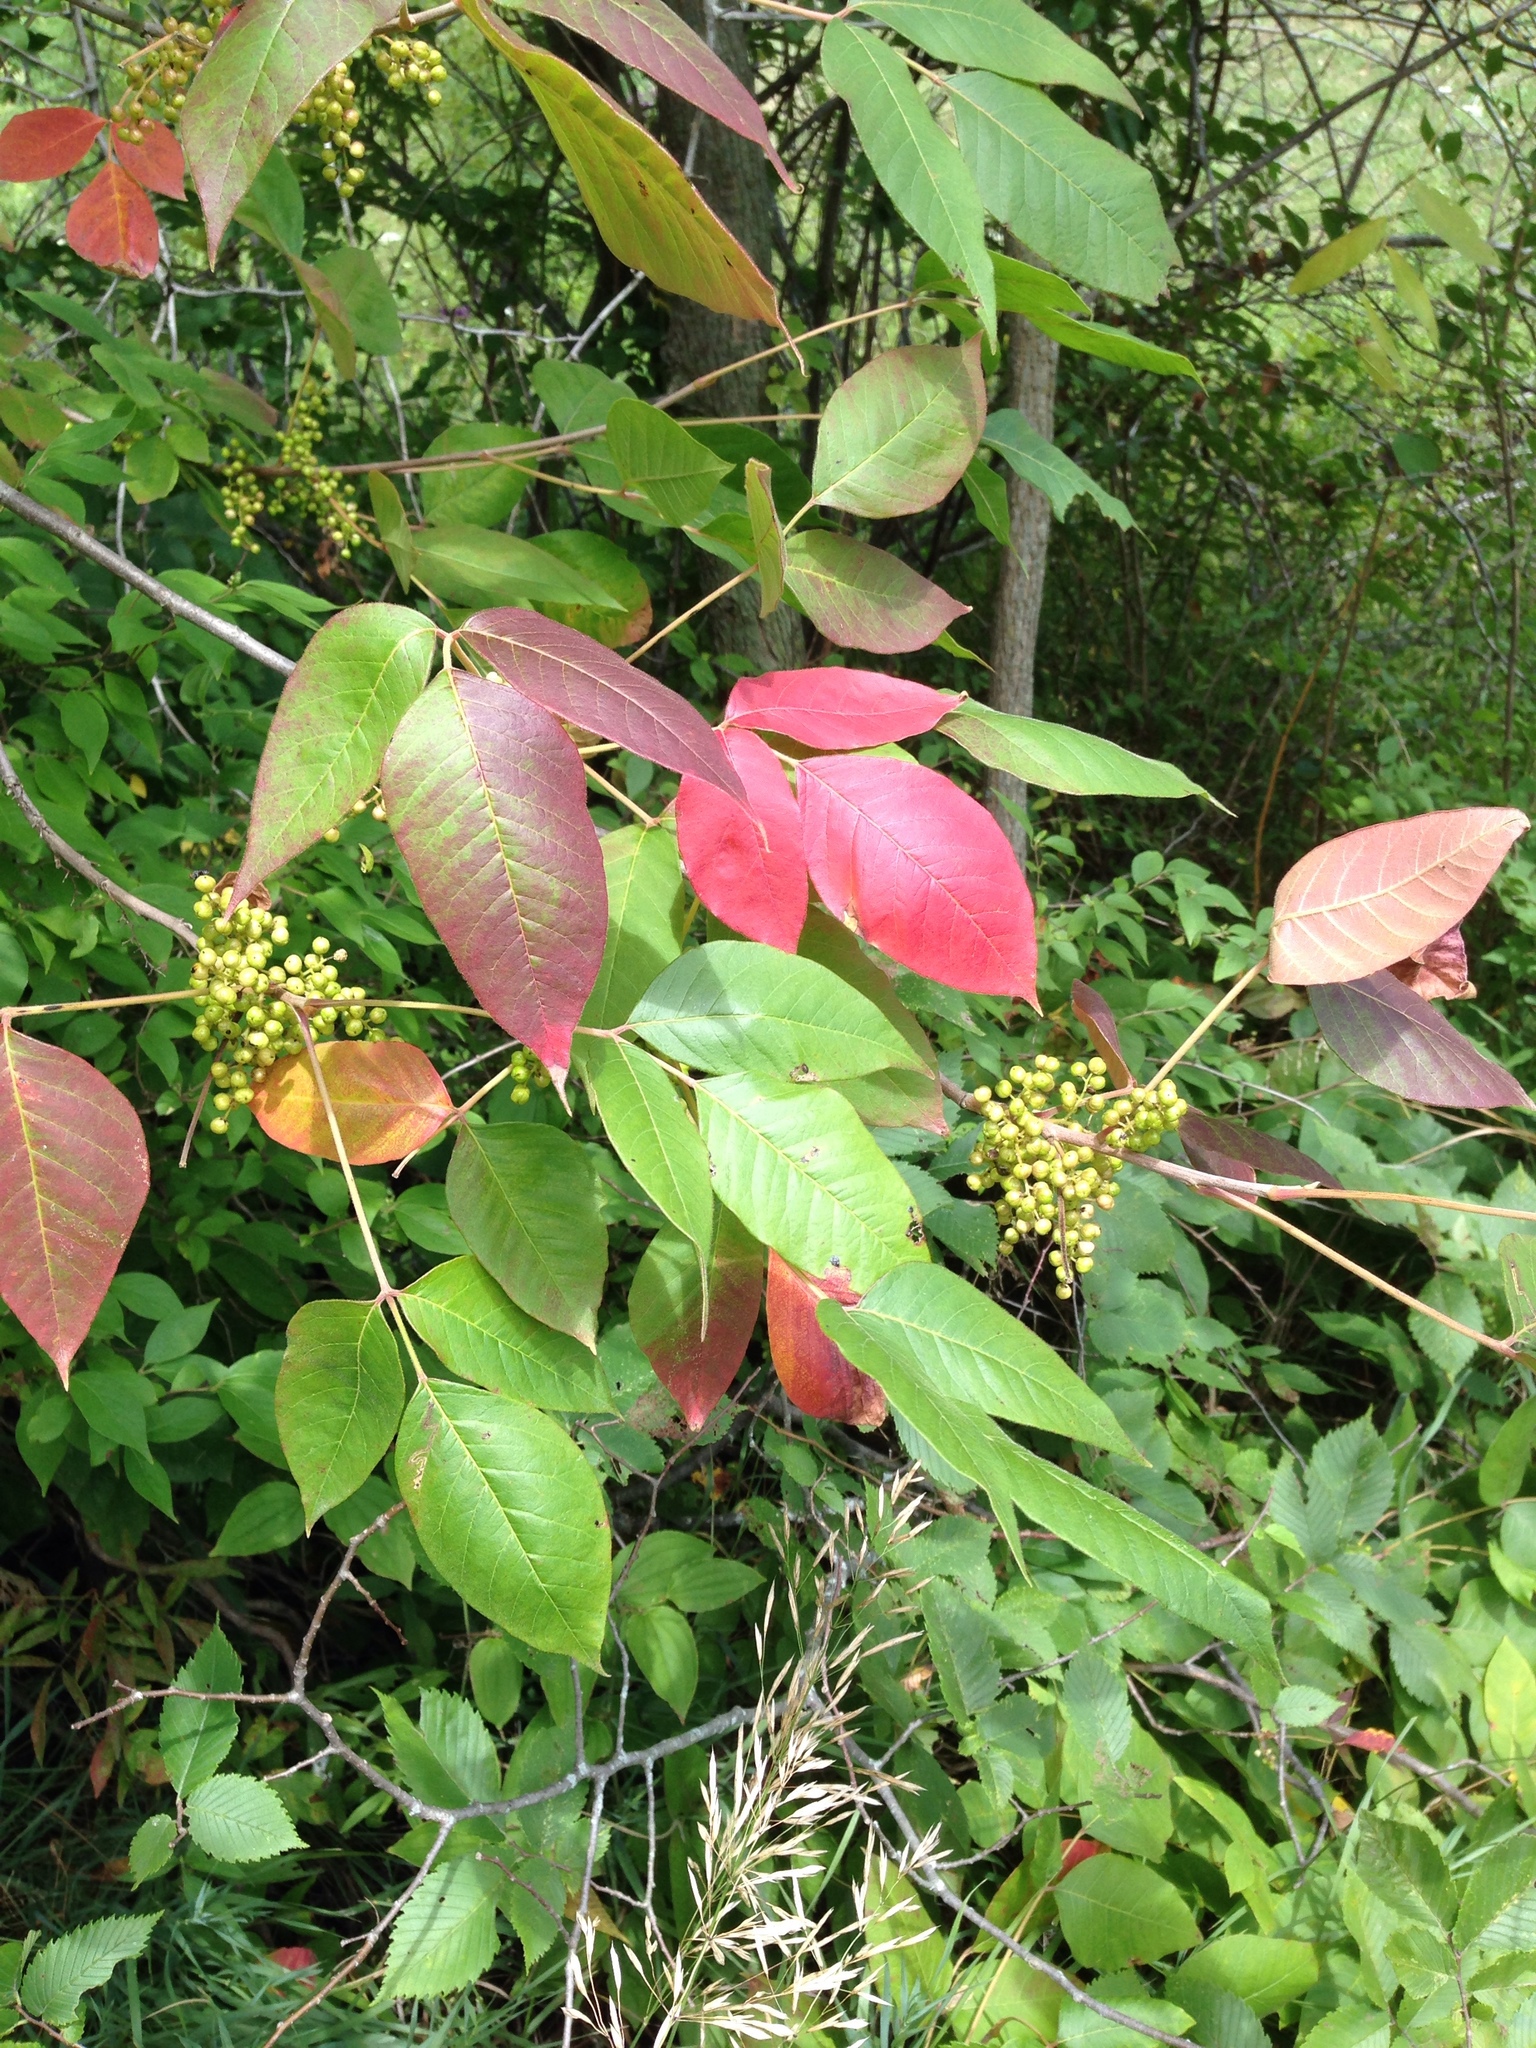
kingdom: Plantae
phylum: Tracheophyta
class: Magnoliopsida
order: Sapindales
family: Anacardiaceae
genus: Toxicodendron
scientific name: Toxicodendron radicans
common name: Poison ivy
